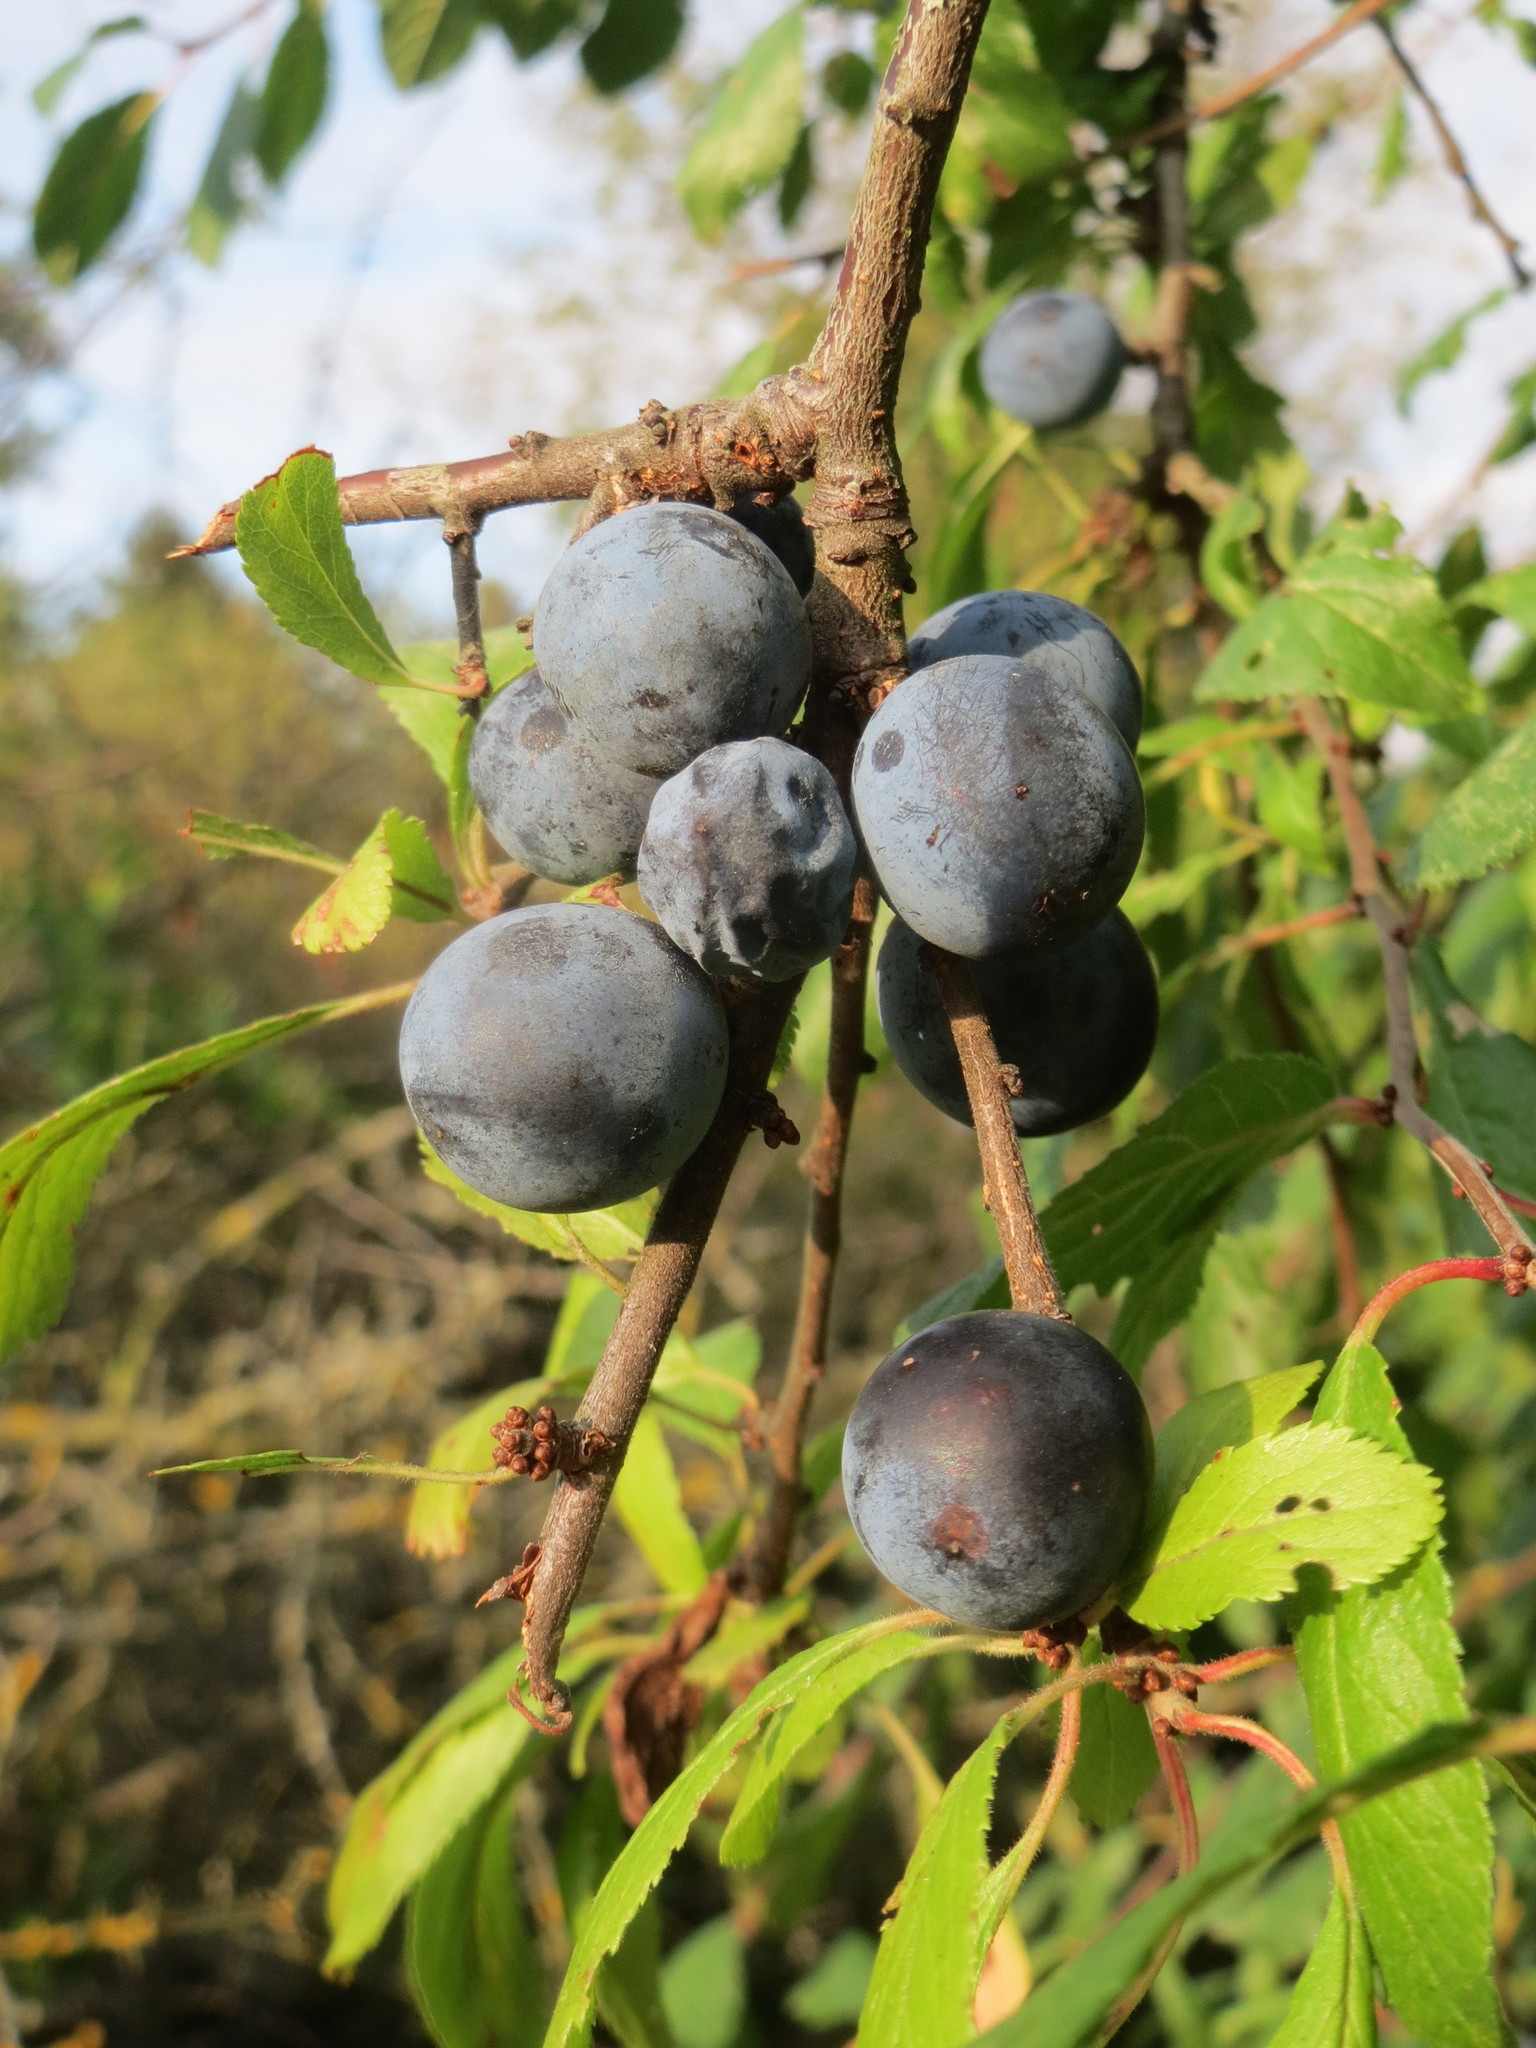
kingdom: Plantae
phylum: Tracheophyta
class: Magnoliopsida
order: Rosales
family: Rosaceae
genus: Prunus
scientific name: Prunus spinosa
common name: Blackthorn
